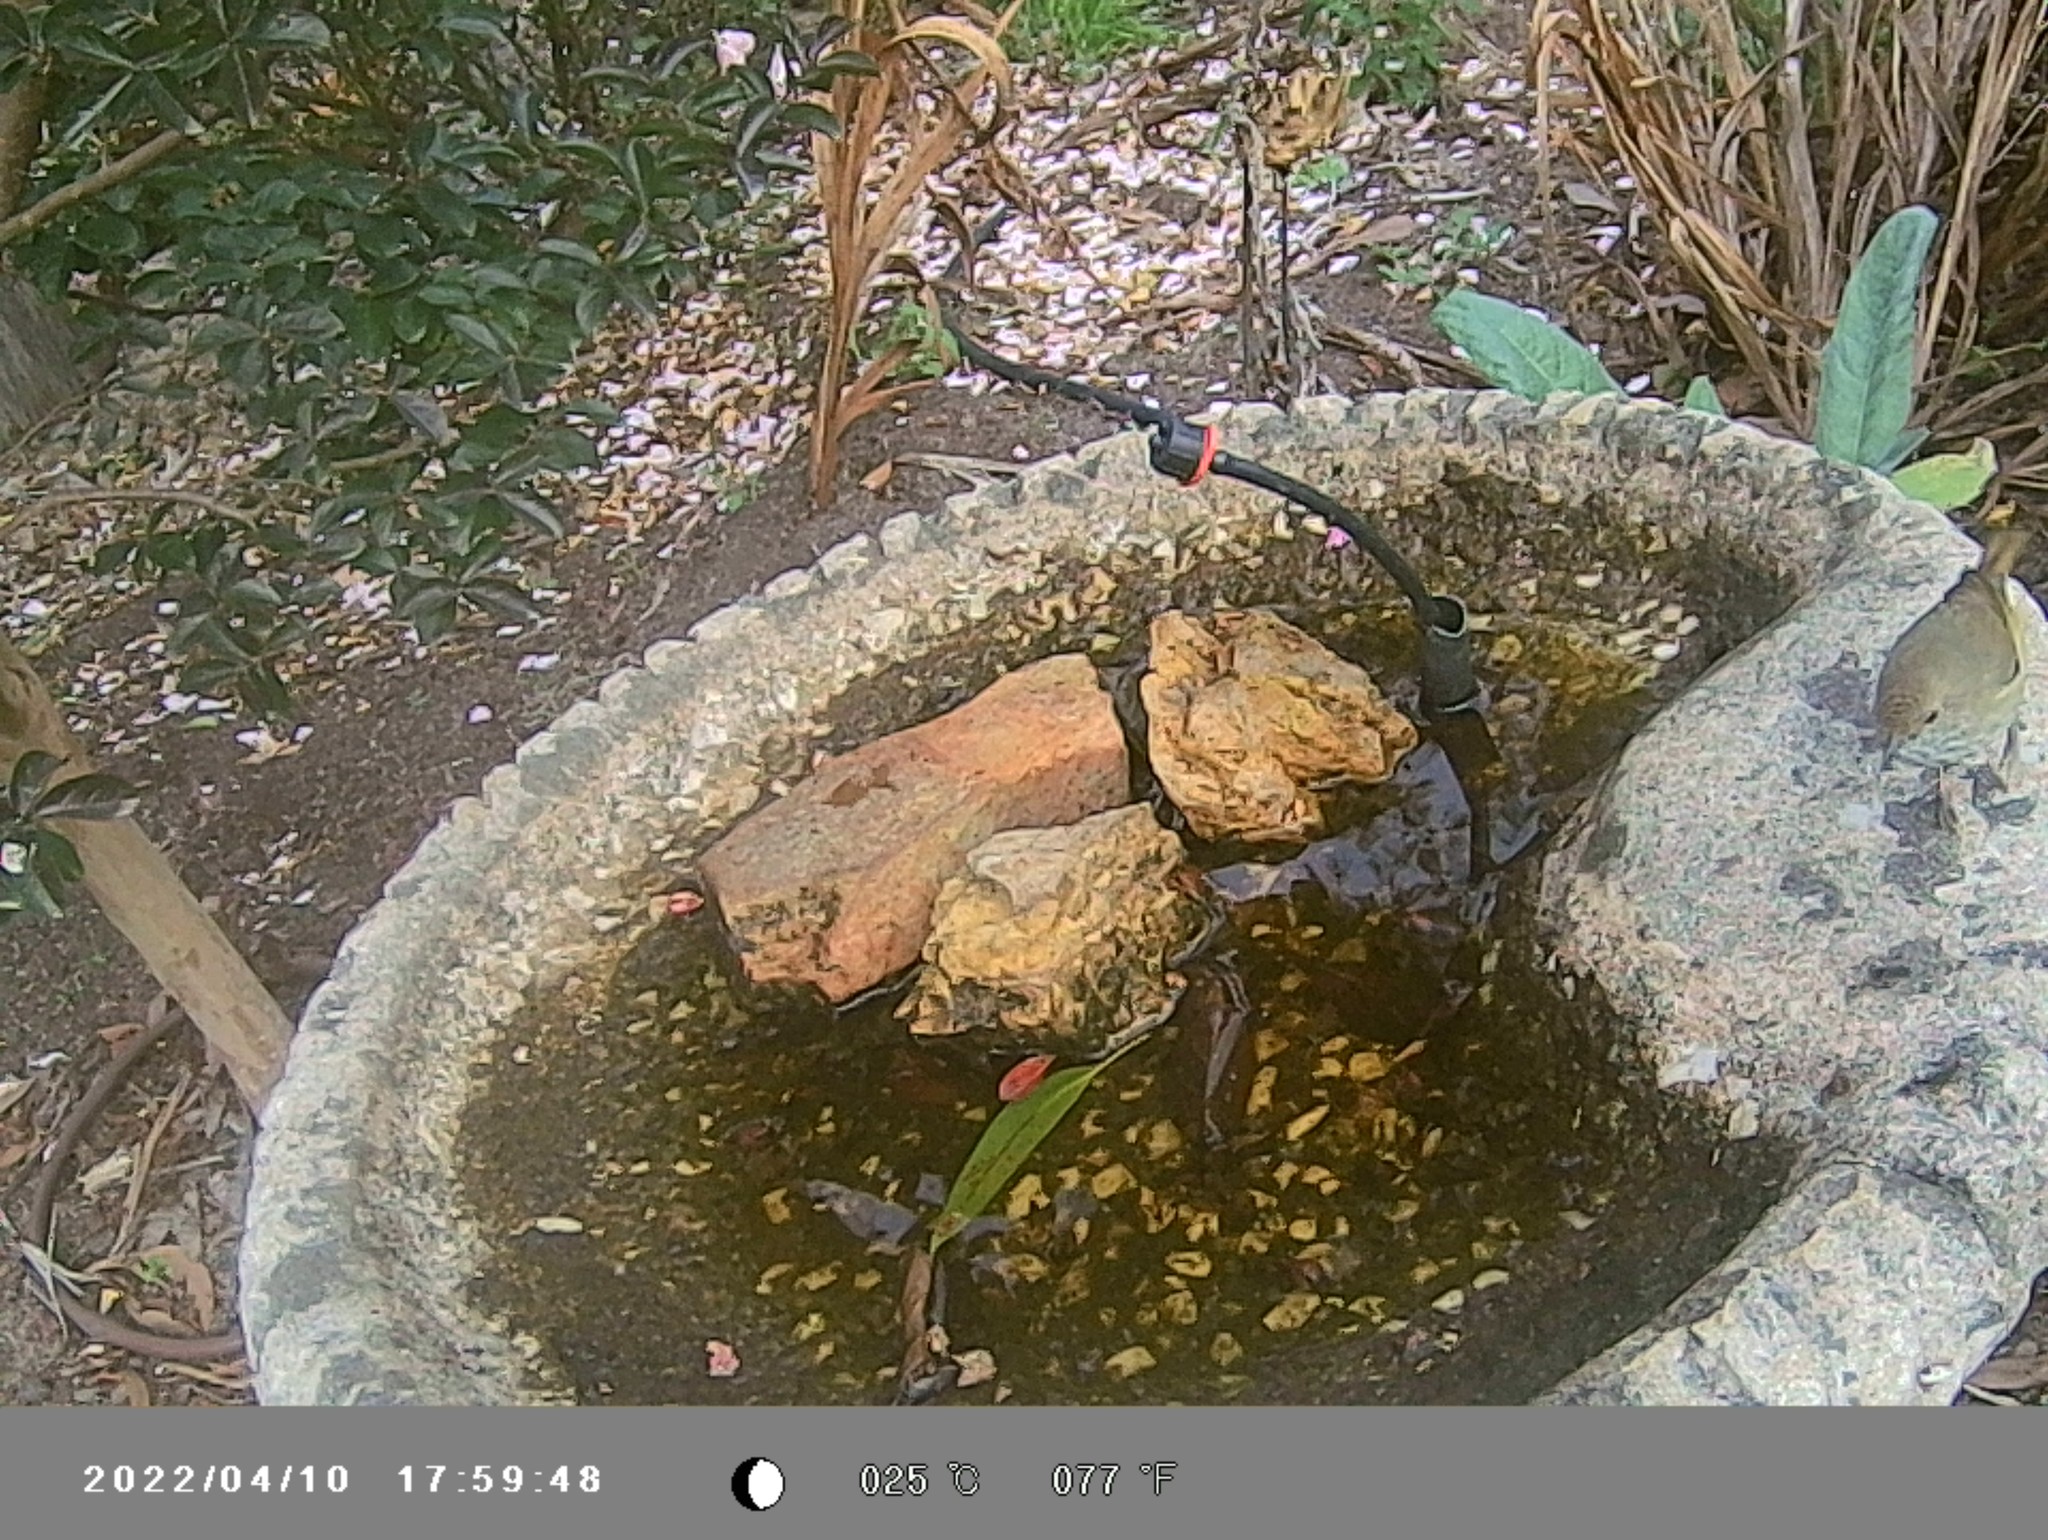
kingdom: Animalia
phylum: Chordata
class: Aves
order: Passeriformes
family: Acanthizidae
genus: Acanthiza
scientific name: Acanthiza pusilla
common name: Brown thornbill
